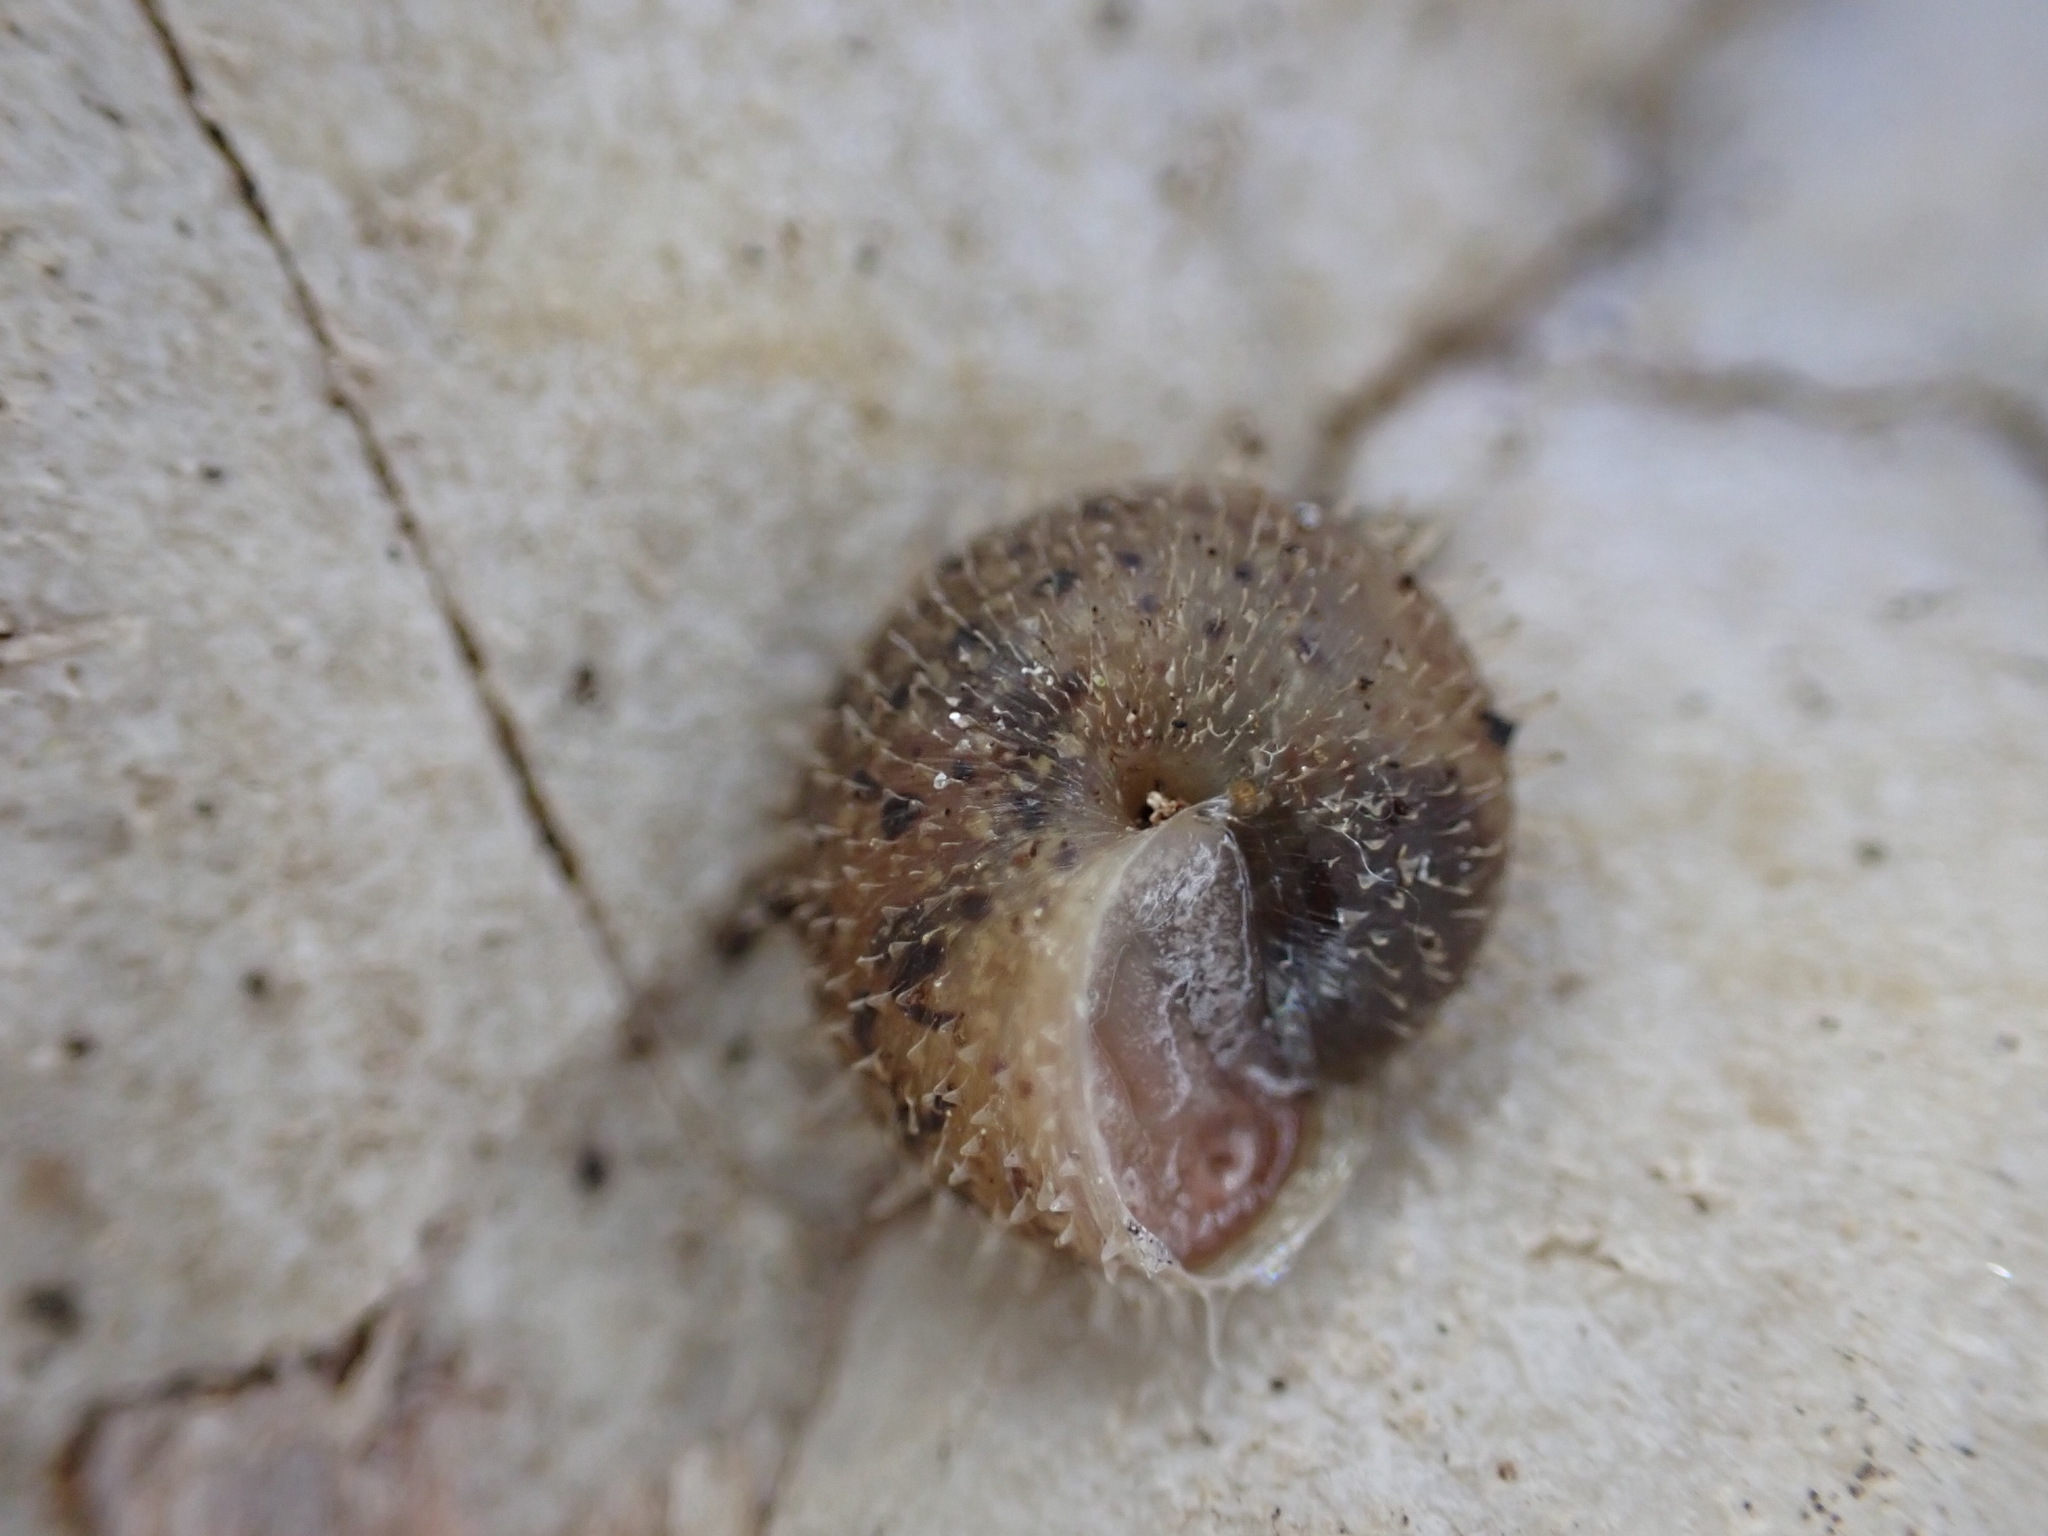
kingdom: Animalia
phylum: Mollusca
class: Gastropoda
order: Stylommatophora
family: Hygromiidae
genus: Ciliella
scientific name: Ciliella ciliata
